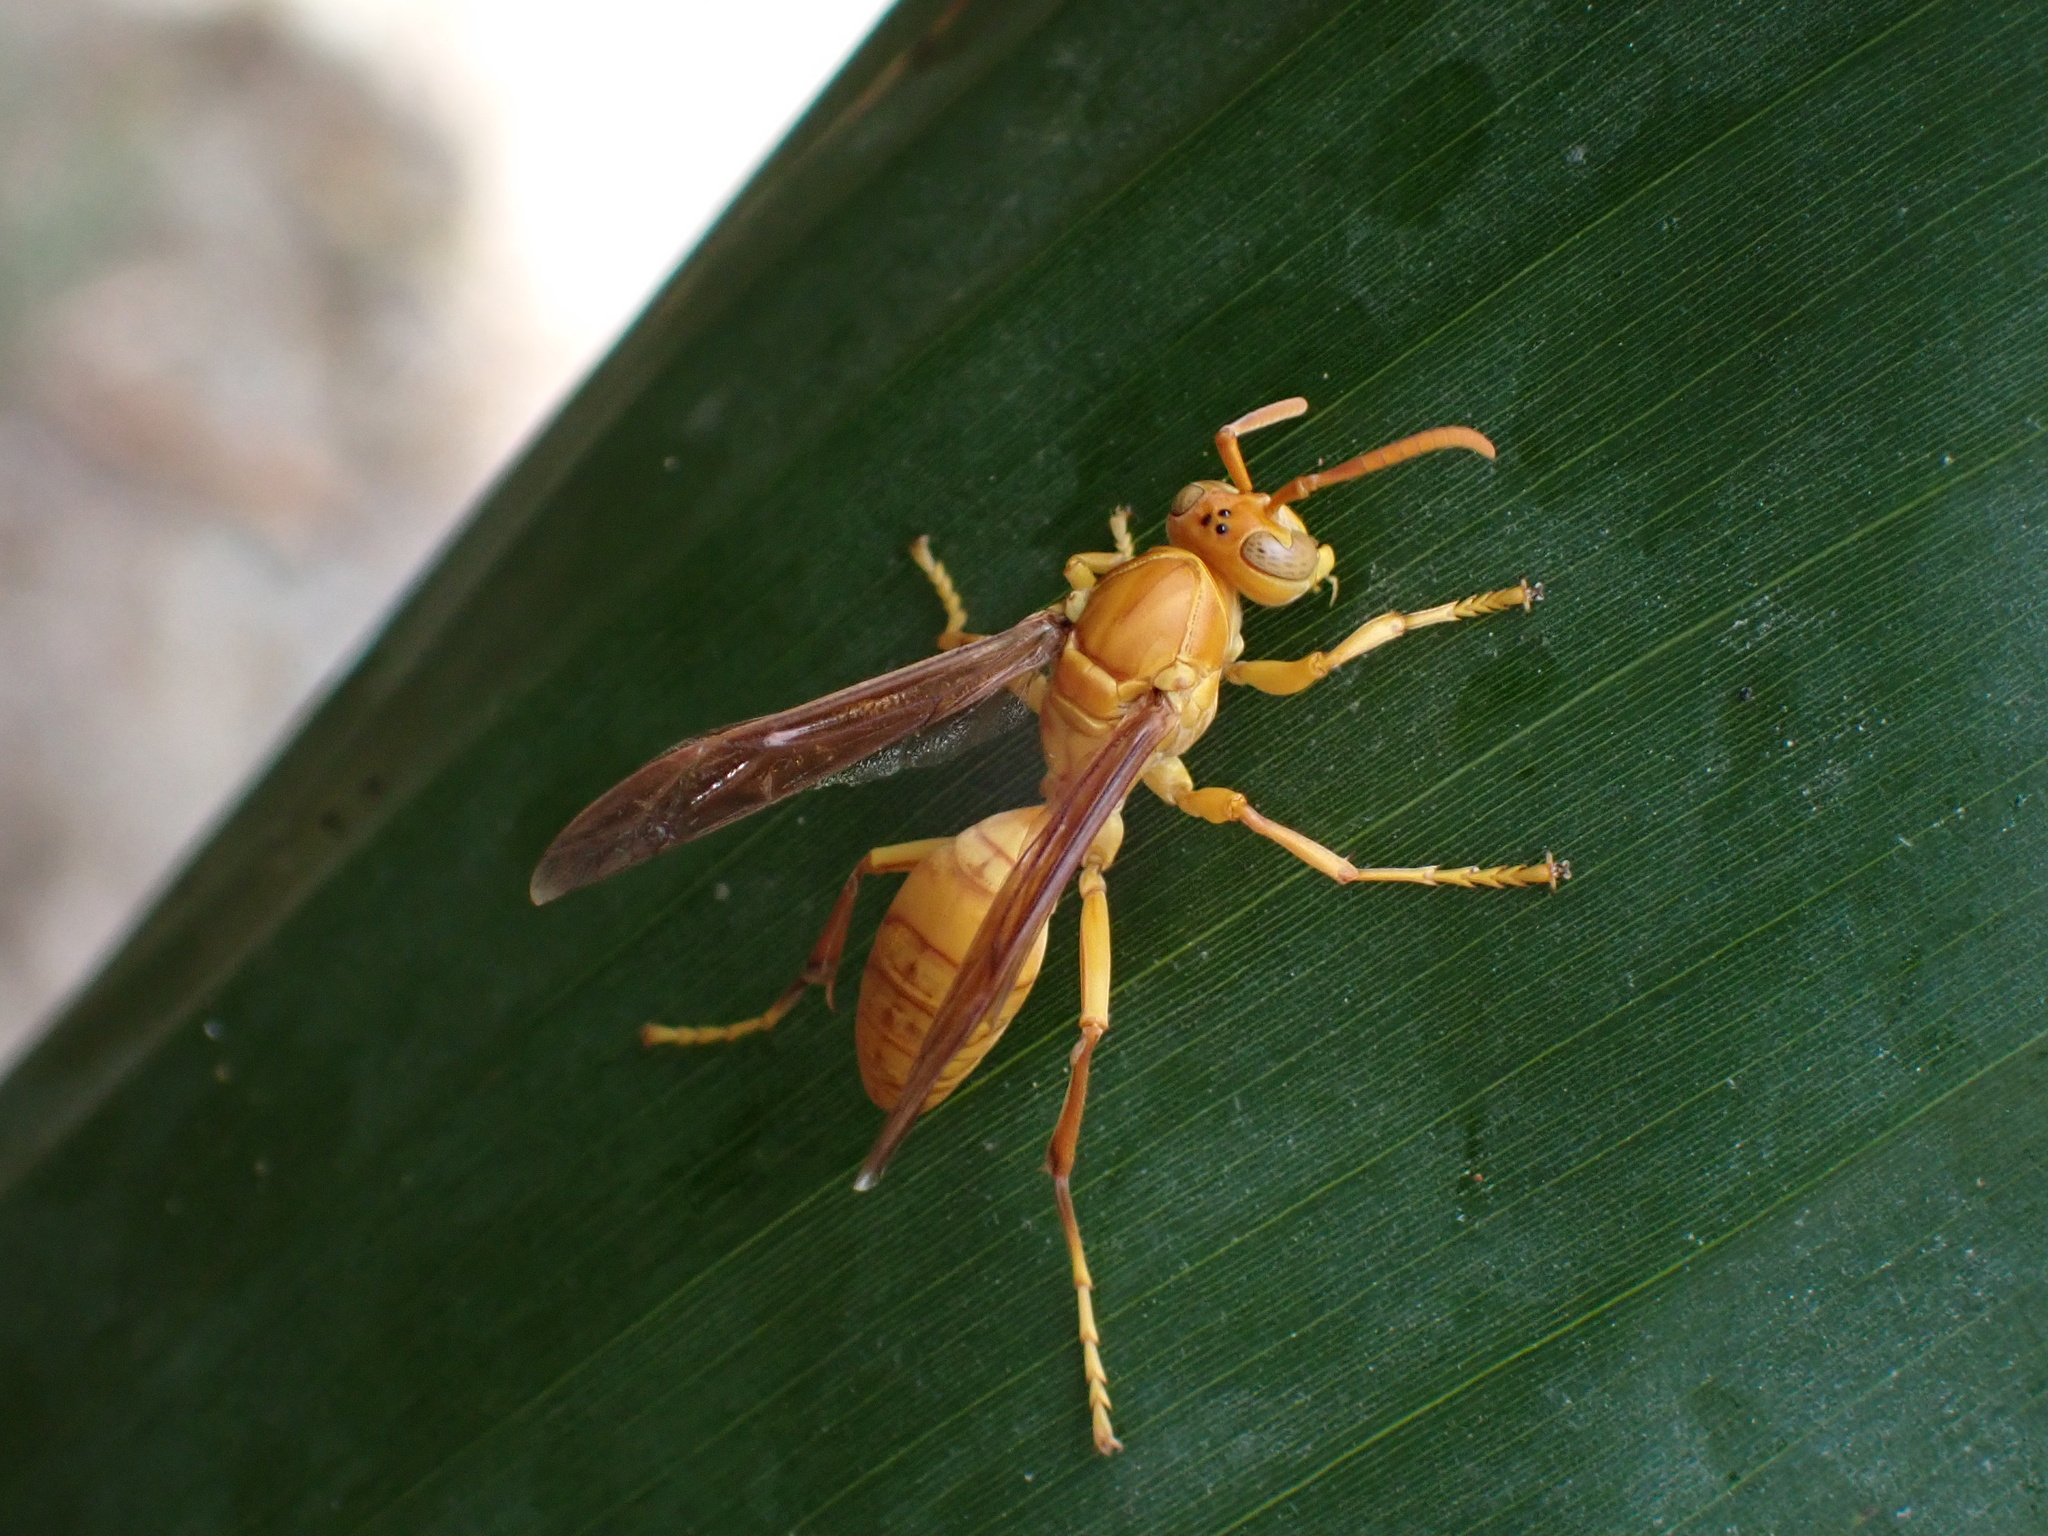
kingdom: Animalia
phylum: Arthropoda
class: Insecta
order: Hymenoptera
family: Eumenidae
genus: Polistes
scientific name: Polistes wattii
